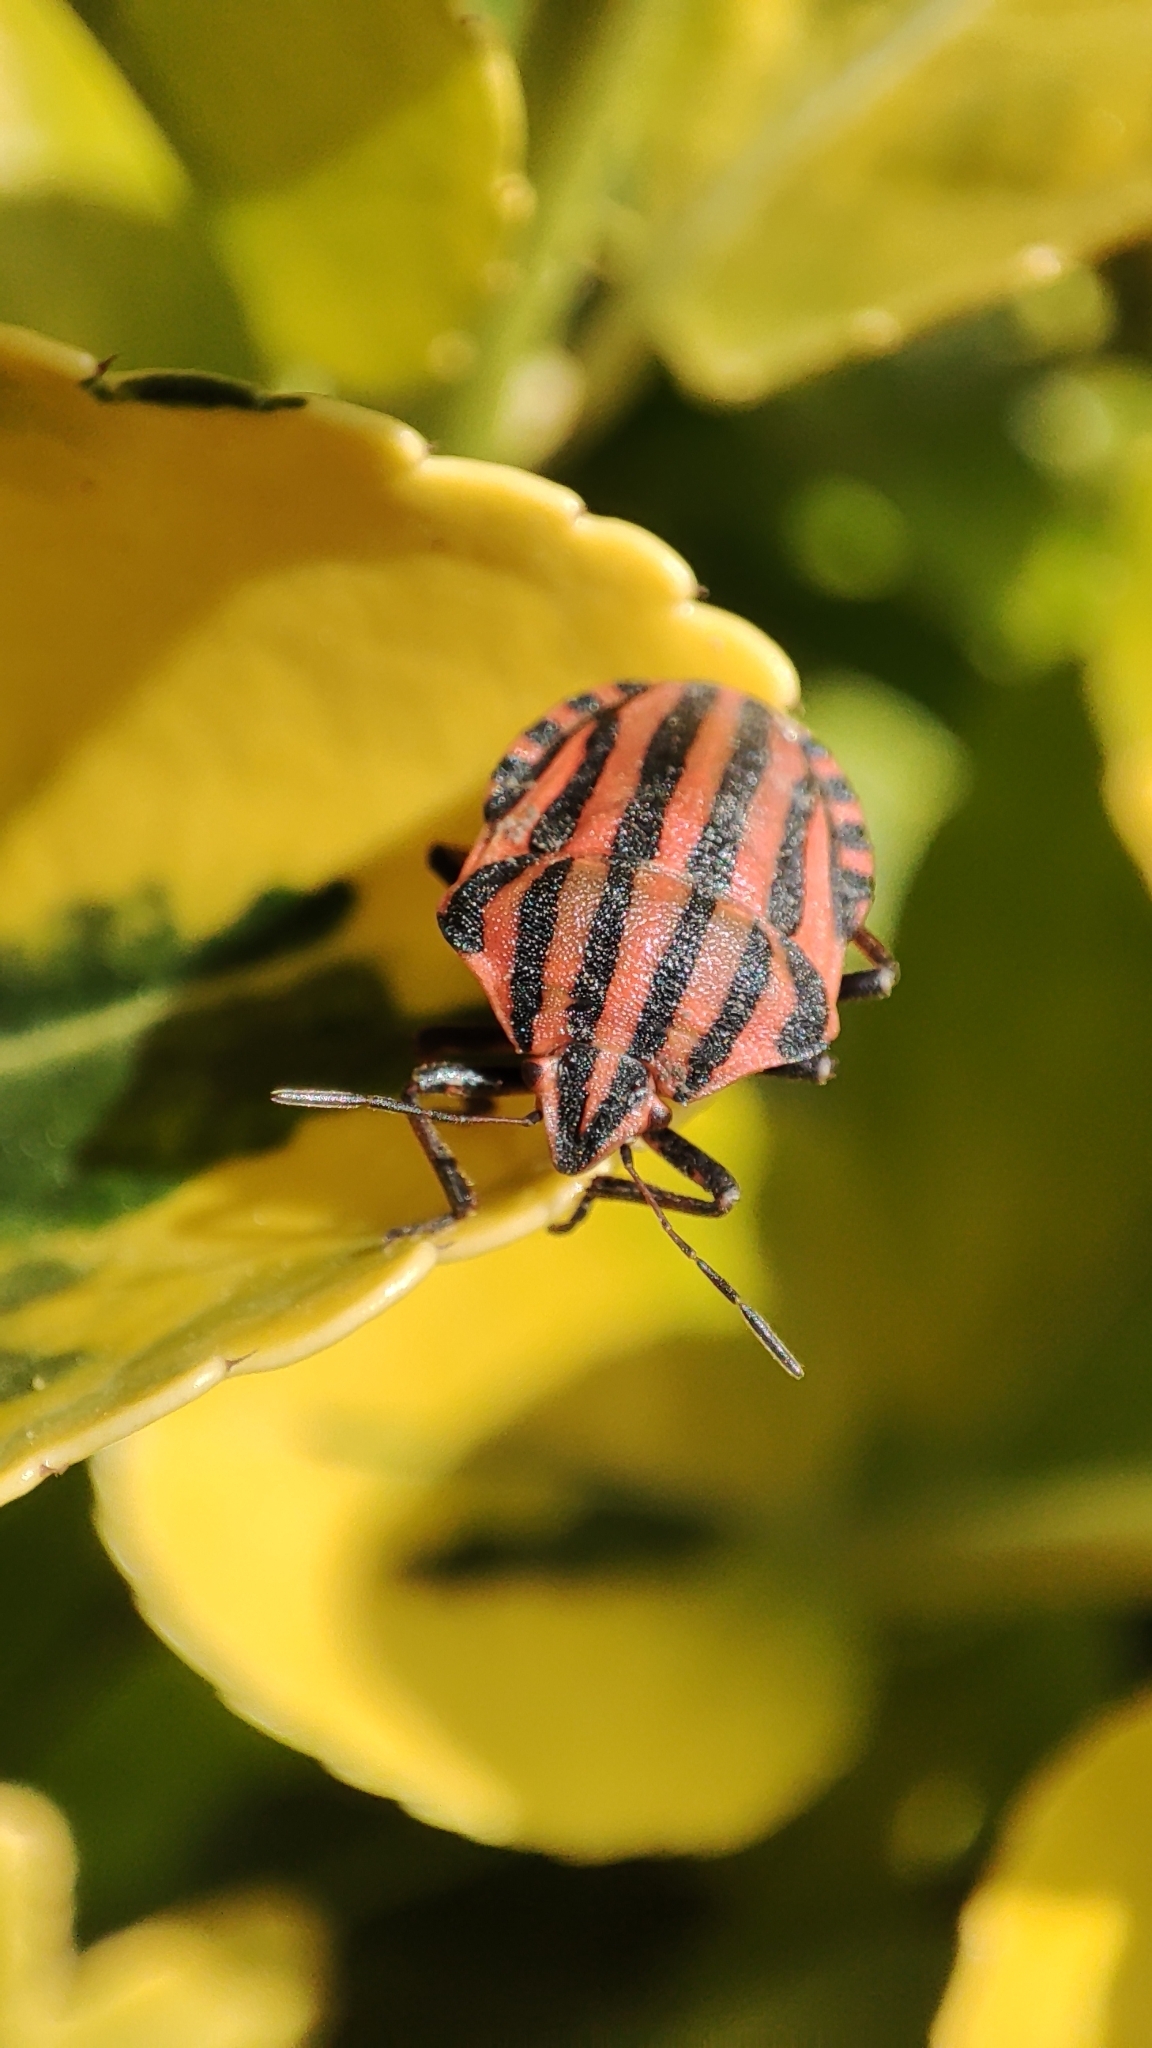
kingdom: Animalia
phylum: Arthropoda
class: Insecta
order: Hemiptera
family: Pentatomidae
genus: Graphosoma
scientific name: Graphosoma italicum
